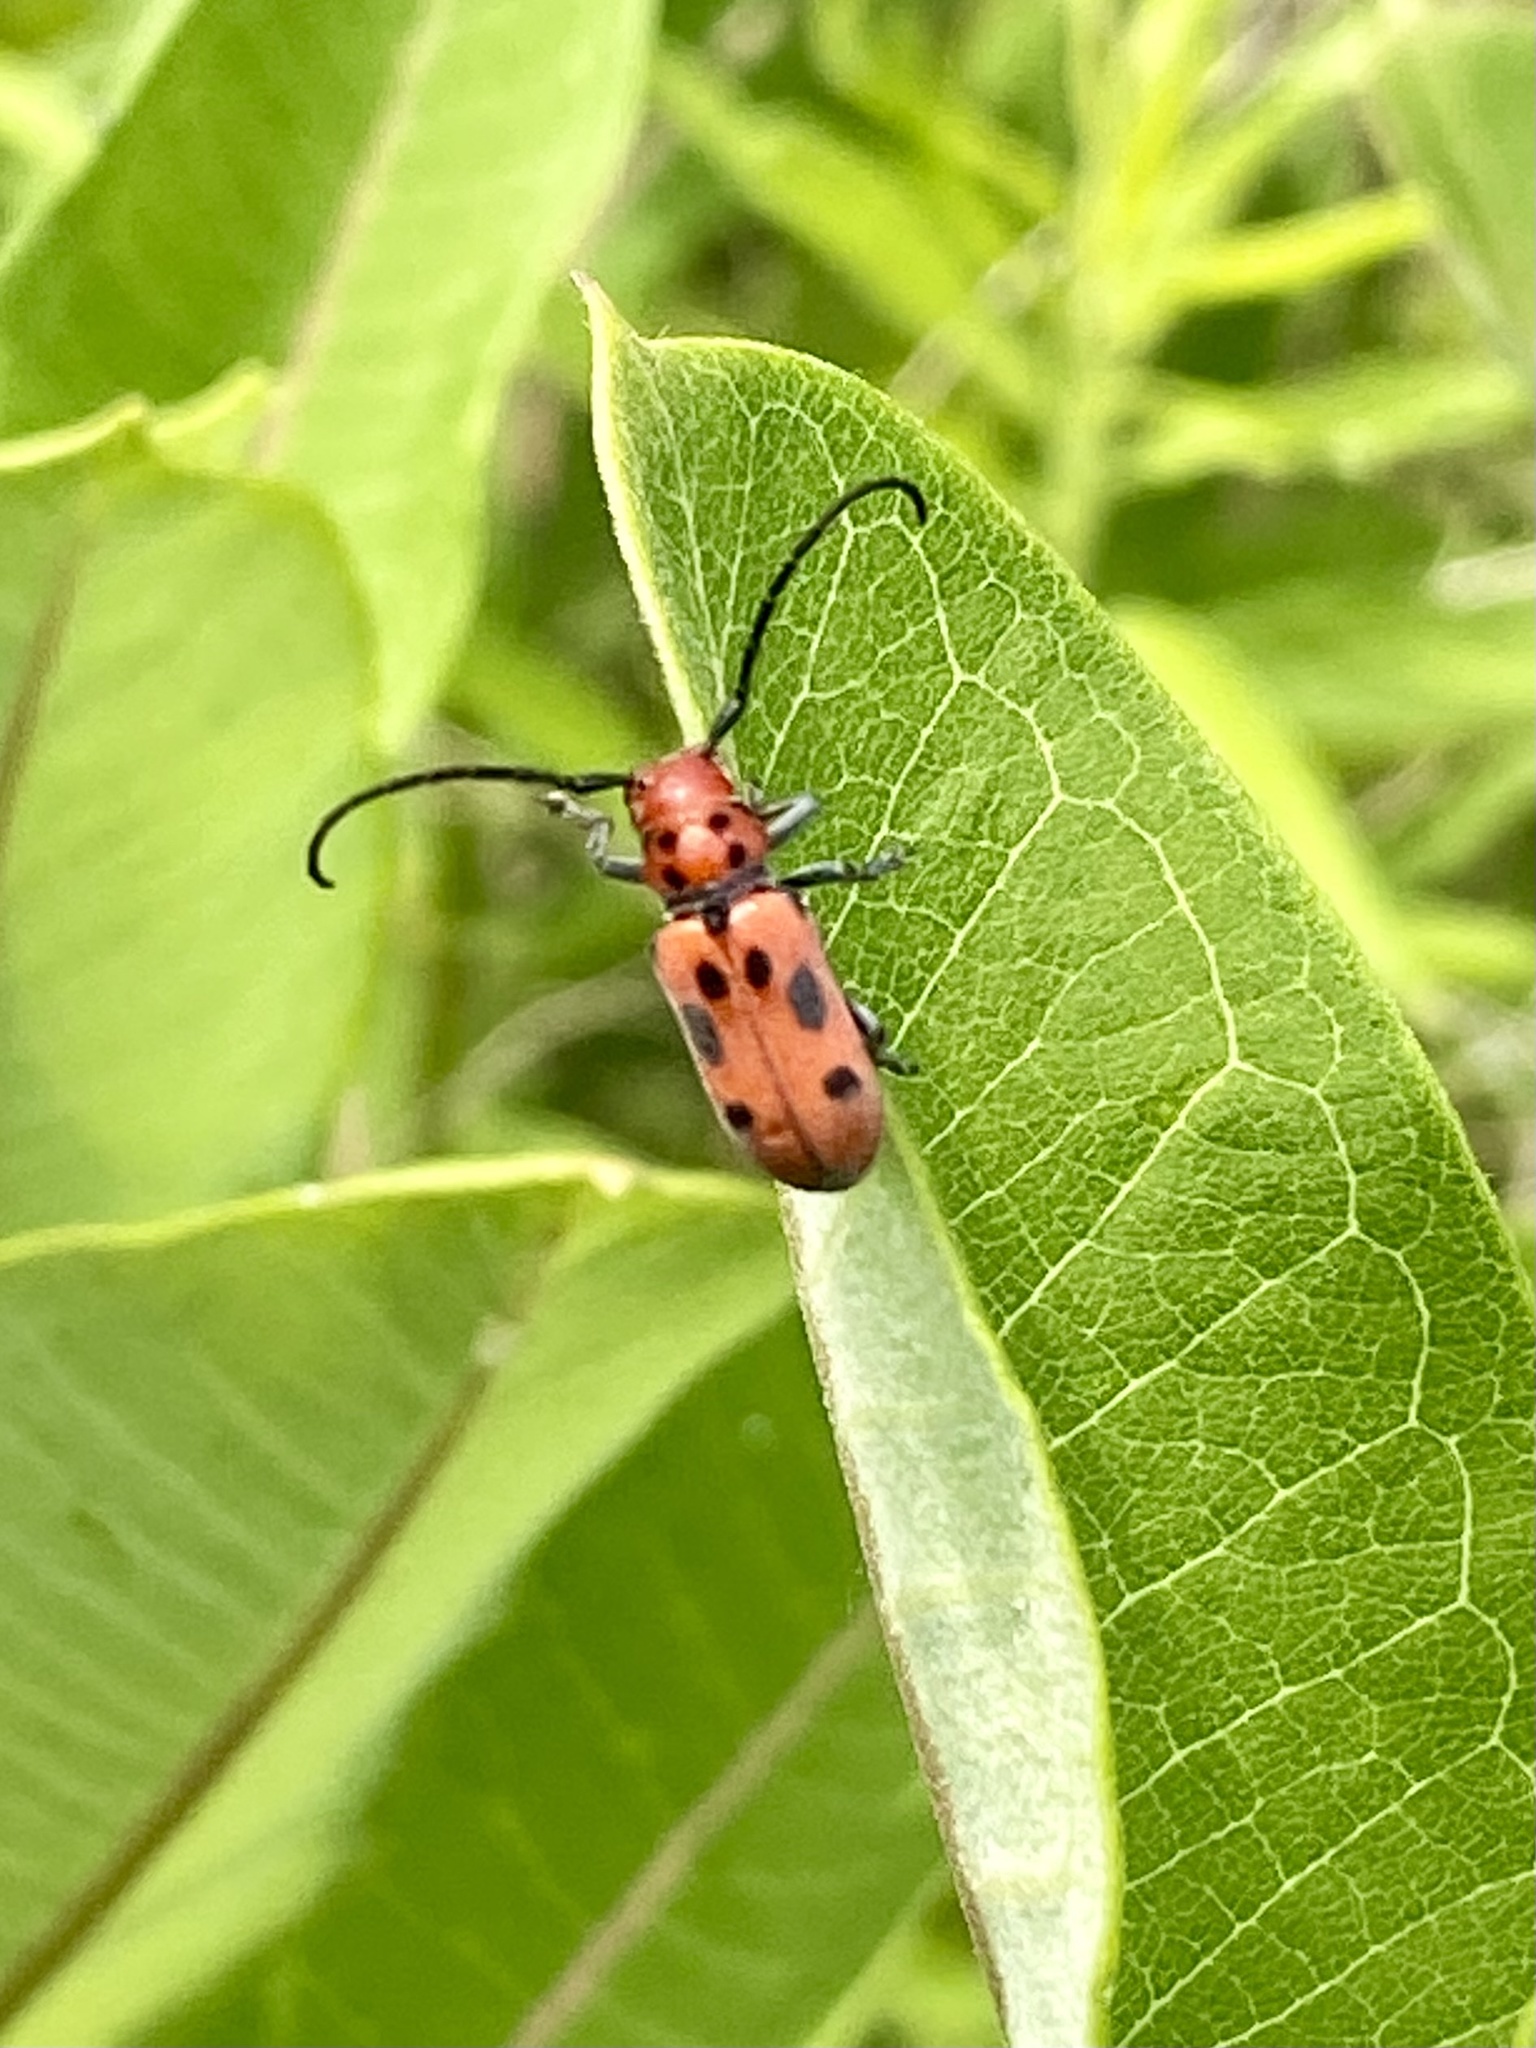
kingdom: Animalia
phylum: Arthropoda
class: Insecta
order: Coleoptera
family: Cerambycidae
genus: Tetraopes
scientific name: Tetraopes tetrophthalmus
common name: Red milkweed beetle
